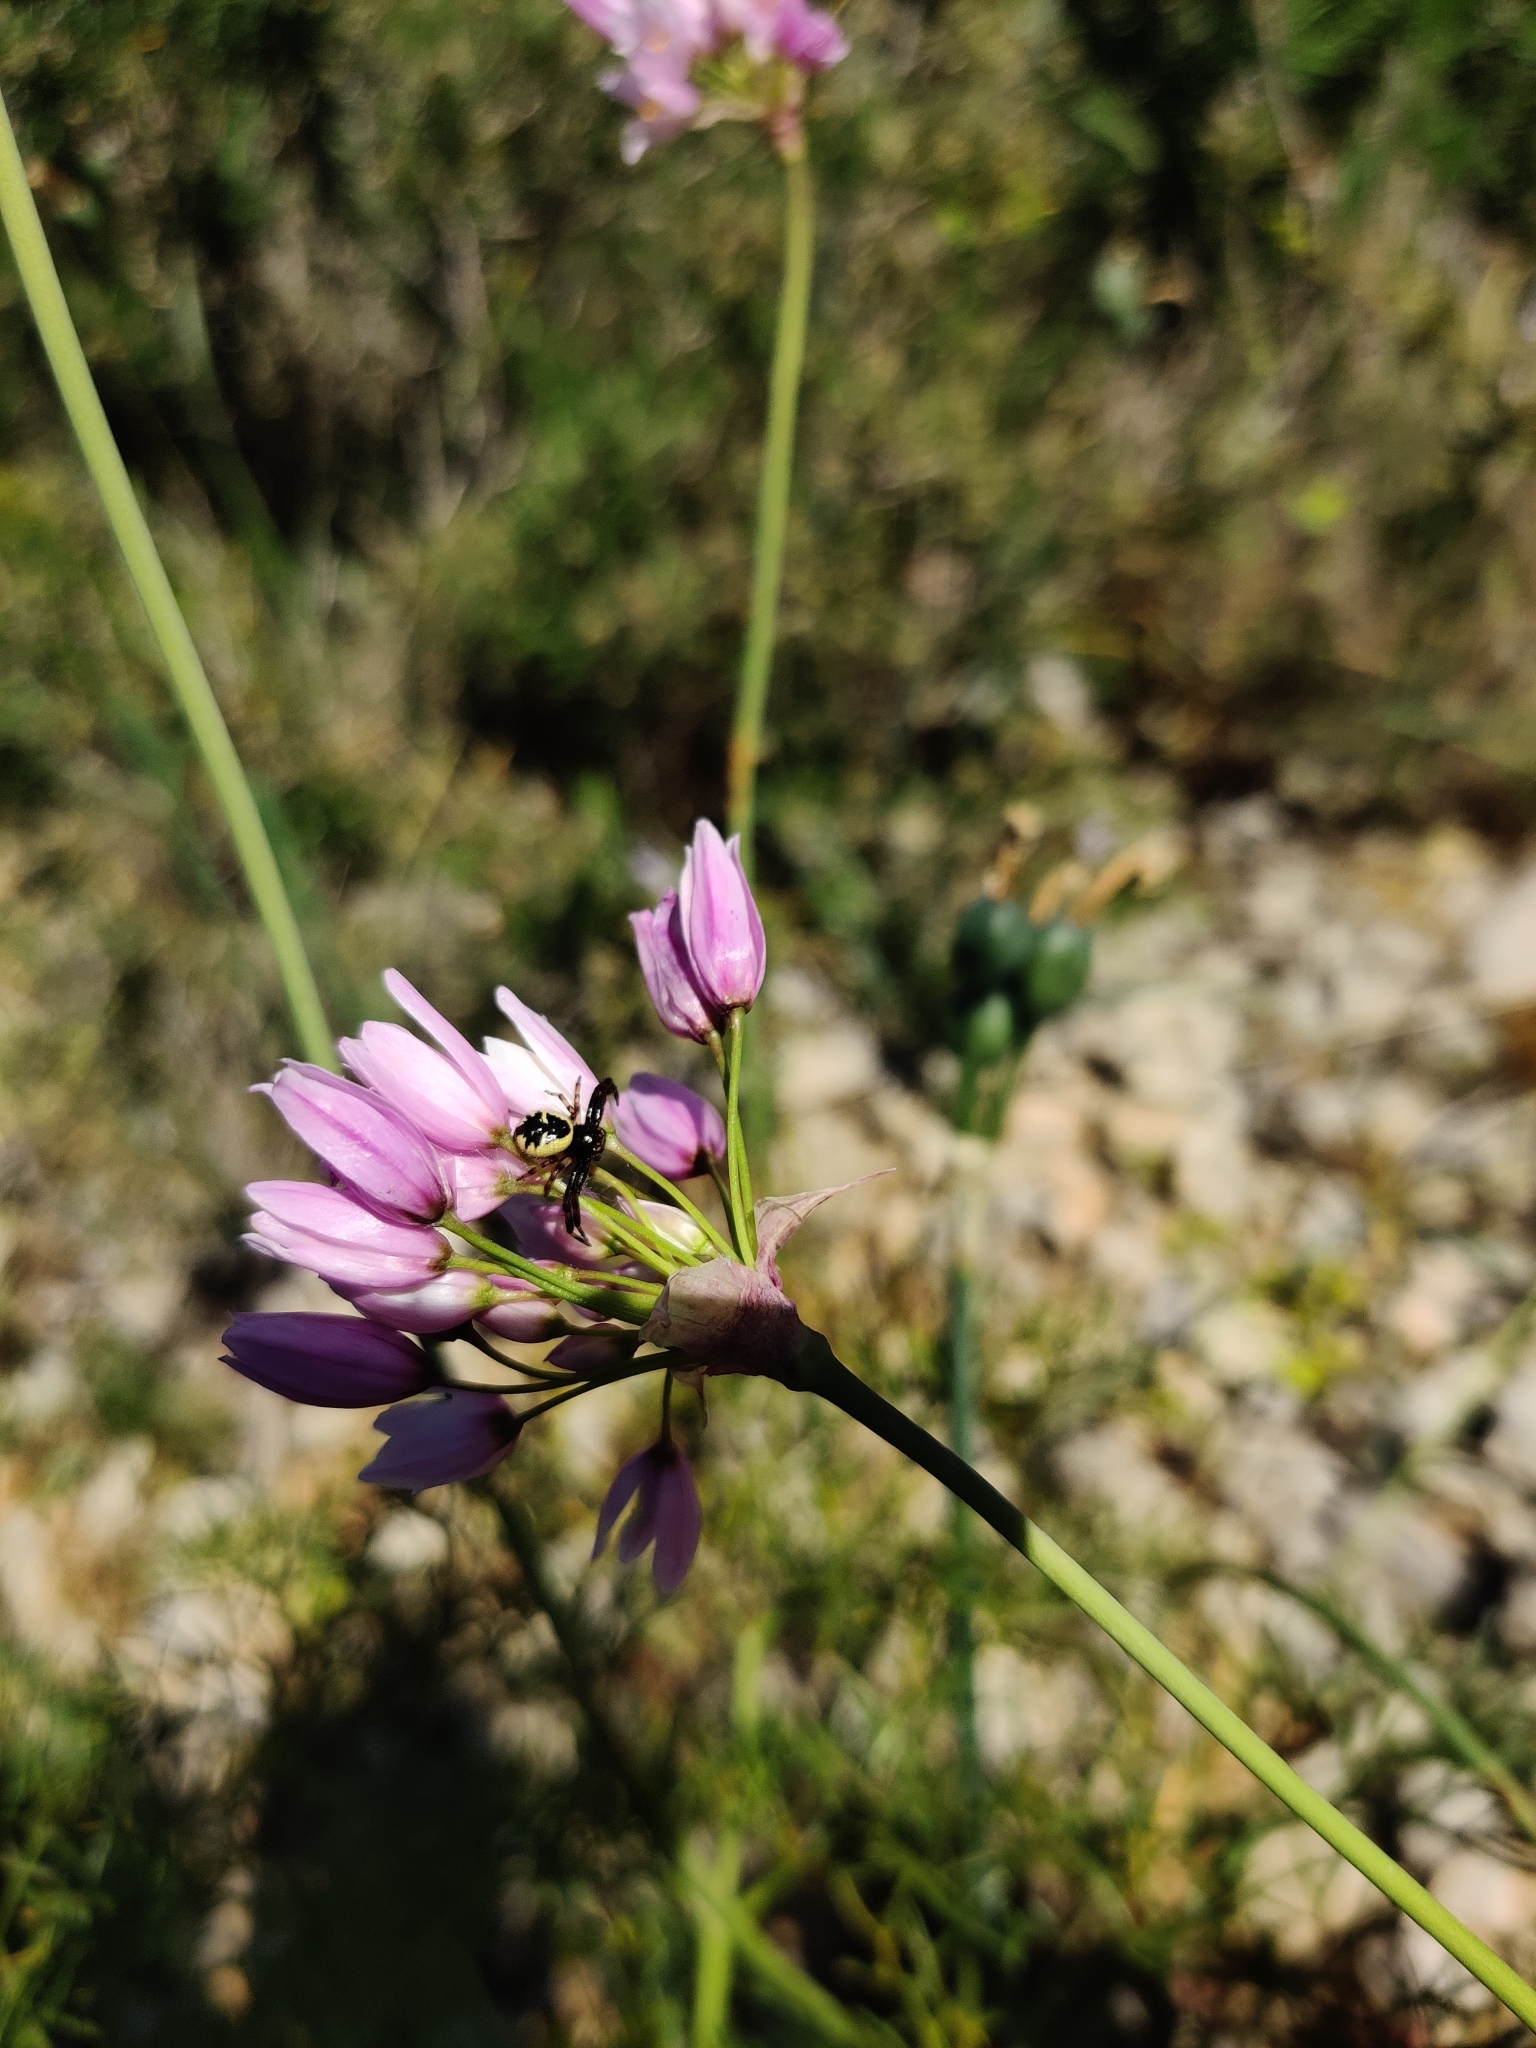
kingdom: Animalia
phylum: Arthropoda
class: Arachnida
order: Araneae
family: Thomisidae
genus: Synema
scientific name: Synema globosum
